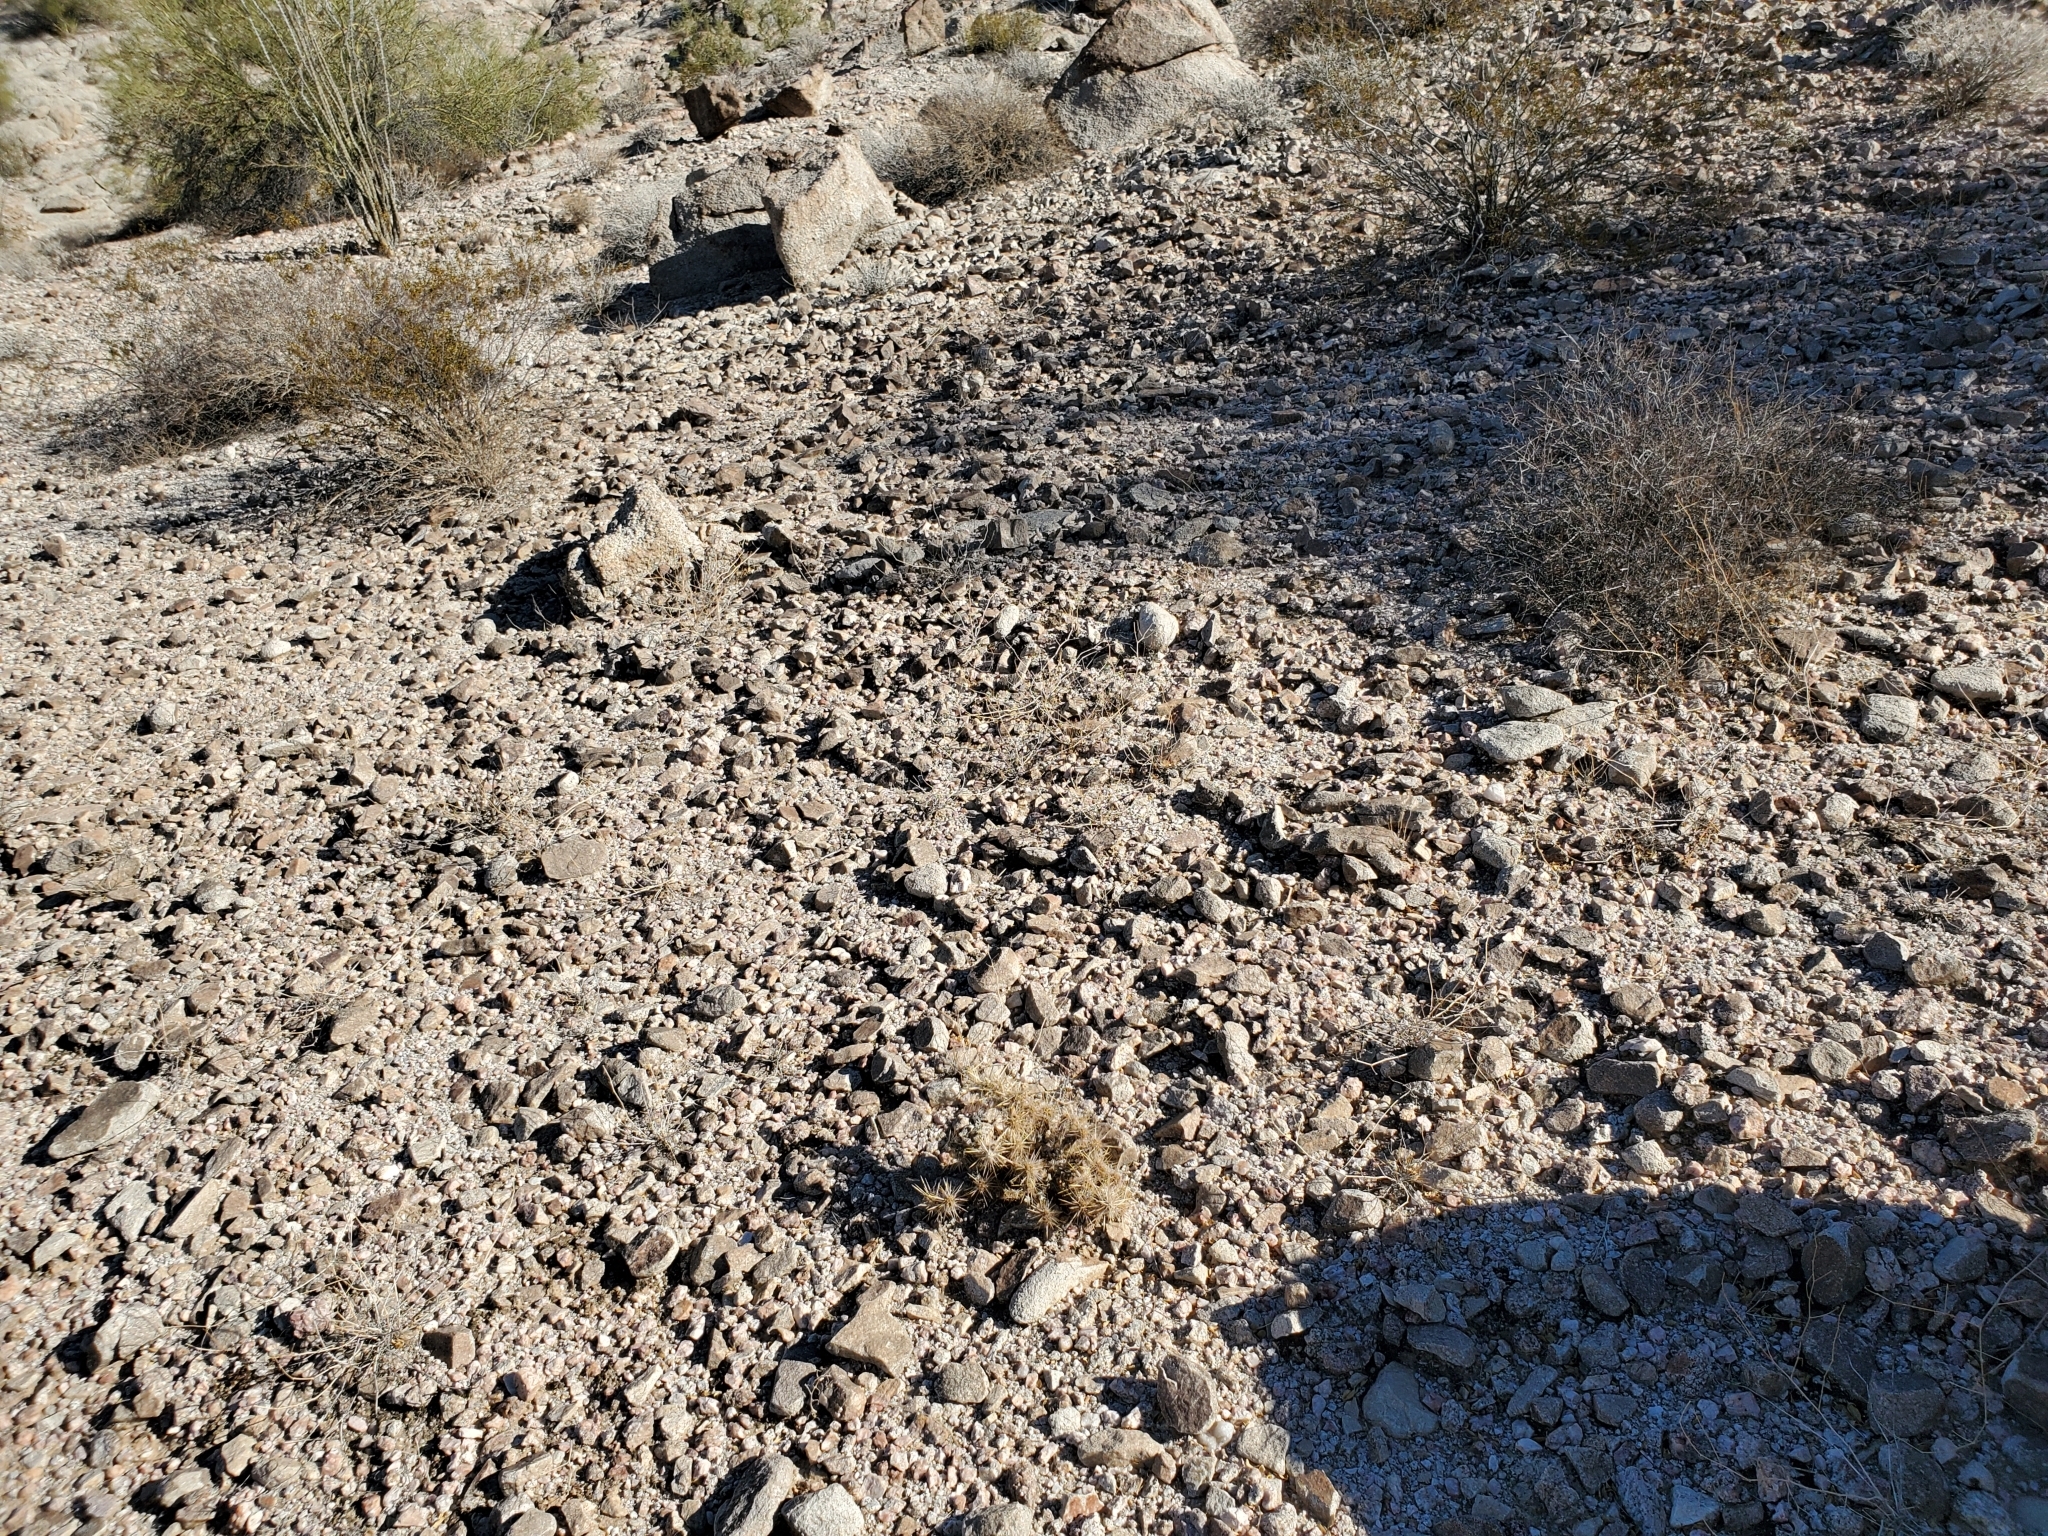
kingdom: Plantae
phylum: Tracheophyta
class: Magnoliopsida
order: Caryophyllales
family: Cactaceae
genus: Cylindropuntia
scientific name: Cylindropuntia echinocarpa
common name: Ground cholla
